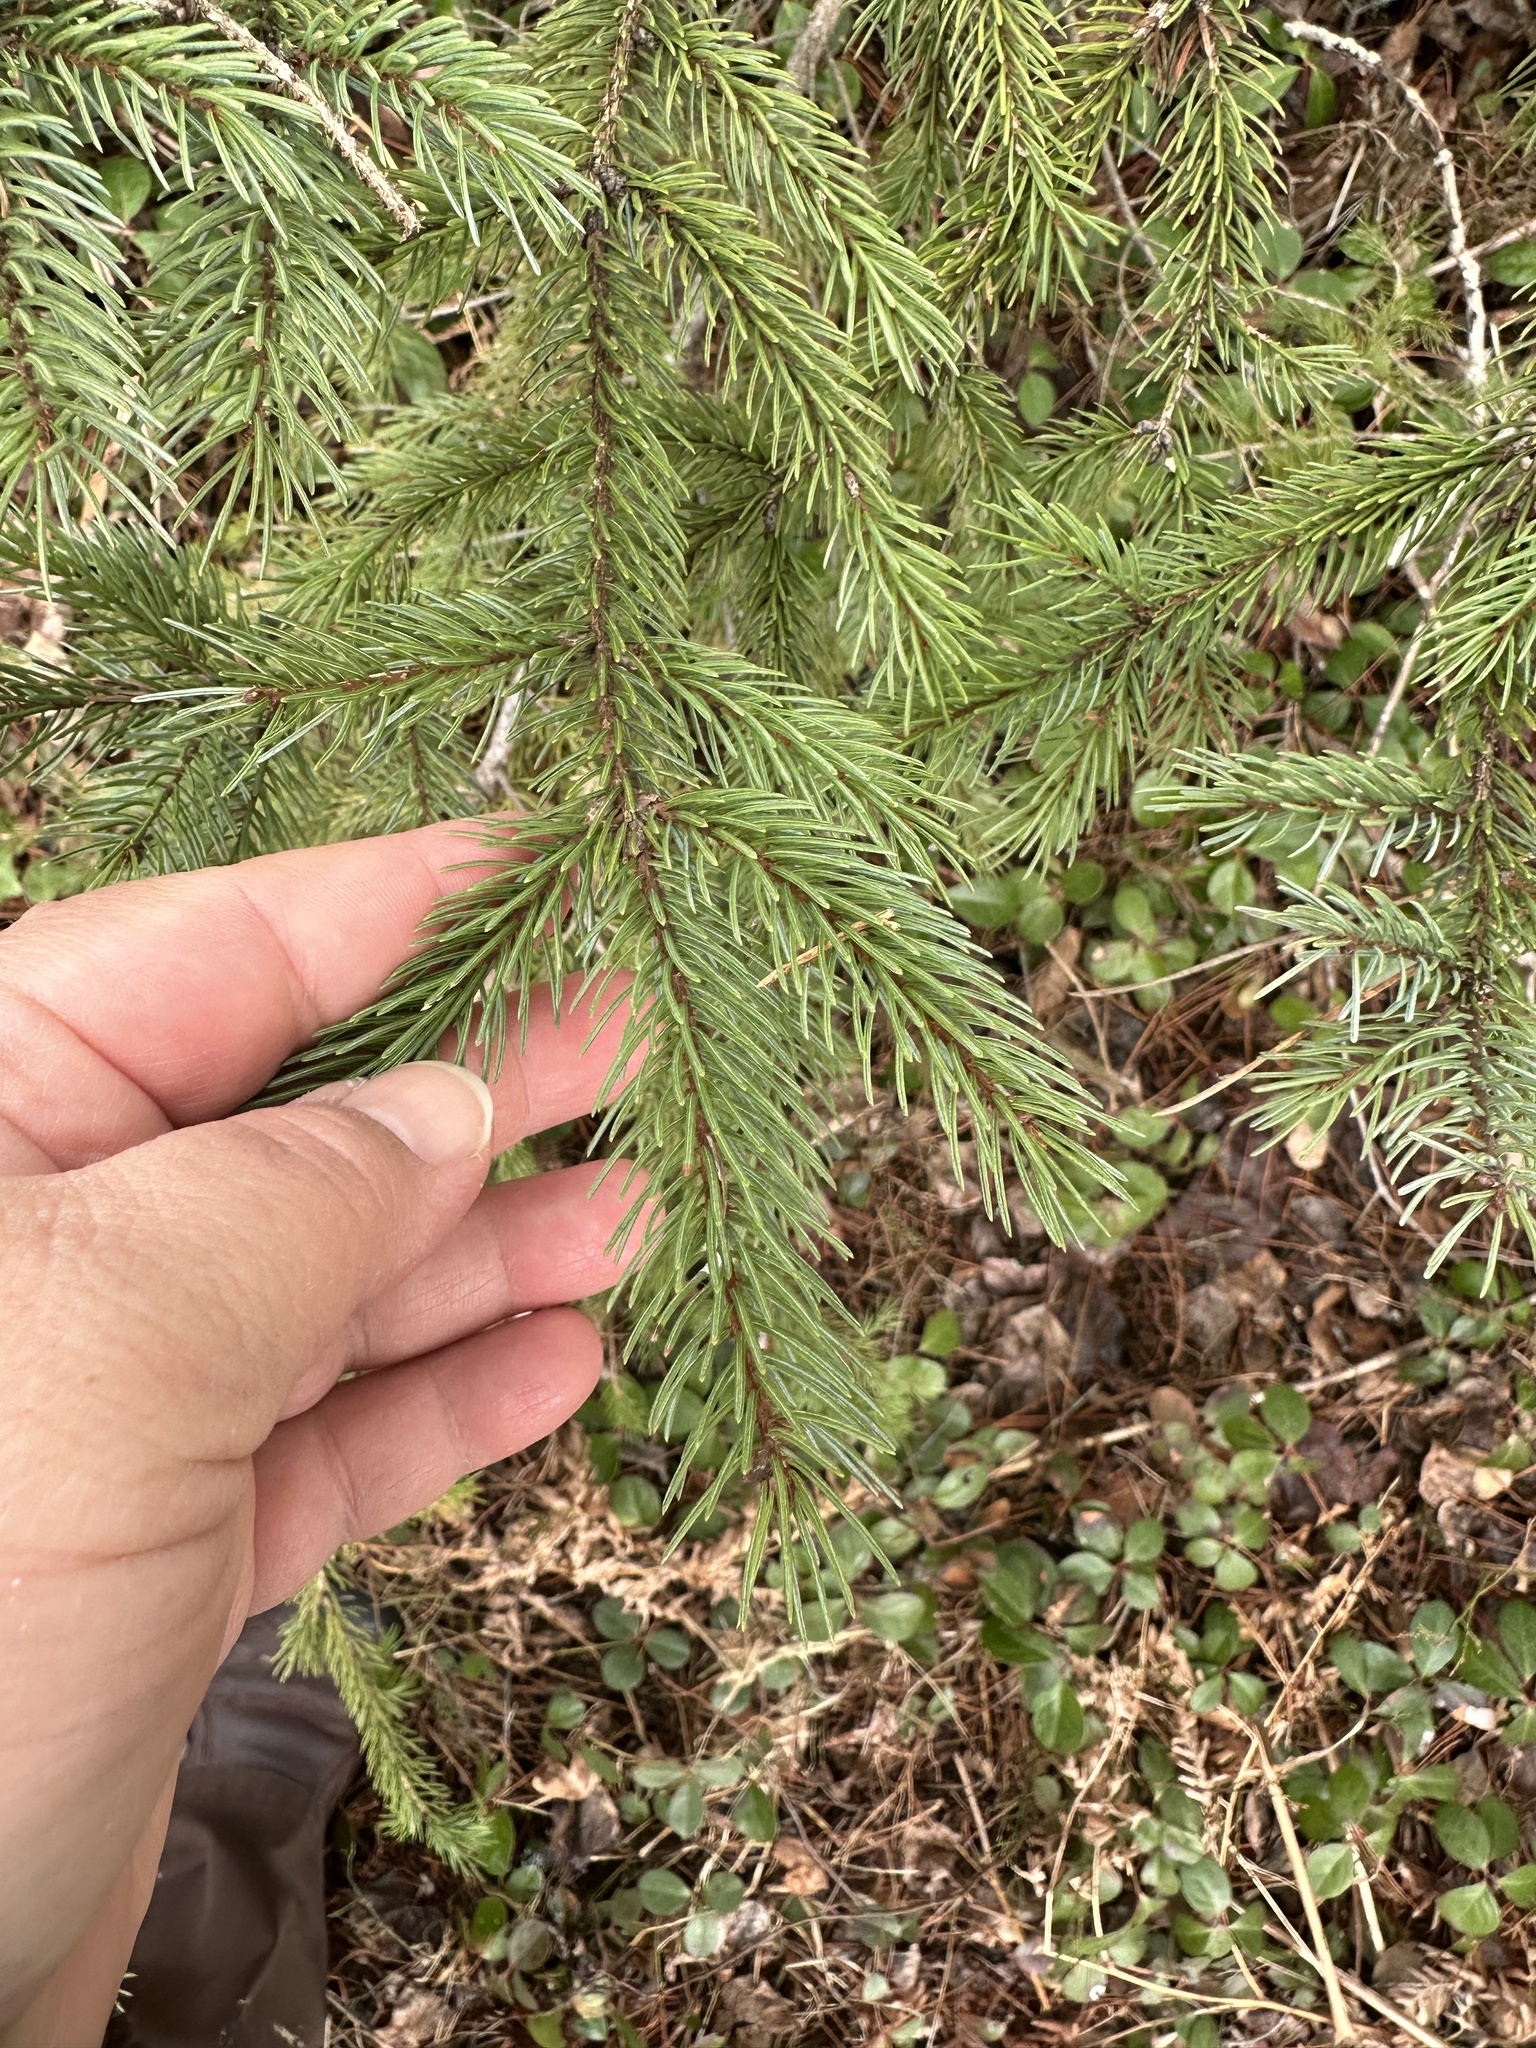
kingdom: Plantae
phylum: Tracheophyta
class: Pinopsida
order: Pinales
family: Pinaceae
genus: Picea
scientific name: Picea mariana
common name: Black spruce
